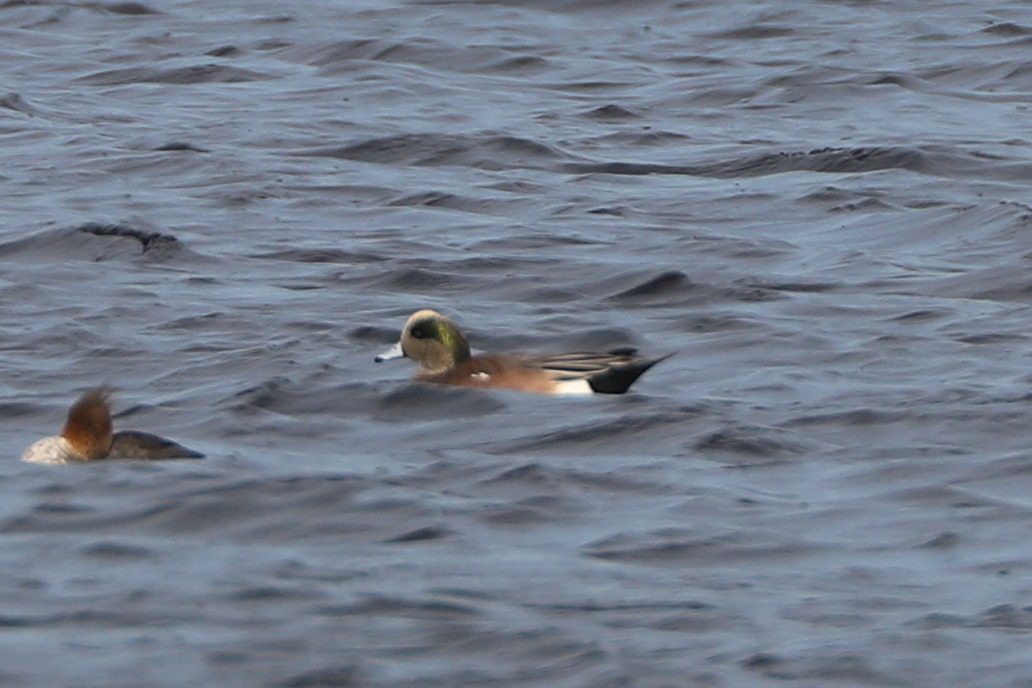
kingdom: Animalia
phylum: Chordata
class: Aves
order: Anseriformes
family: Anatidae
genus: Mareca
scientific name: Mareca americana
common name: American wigeon
